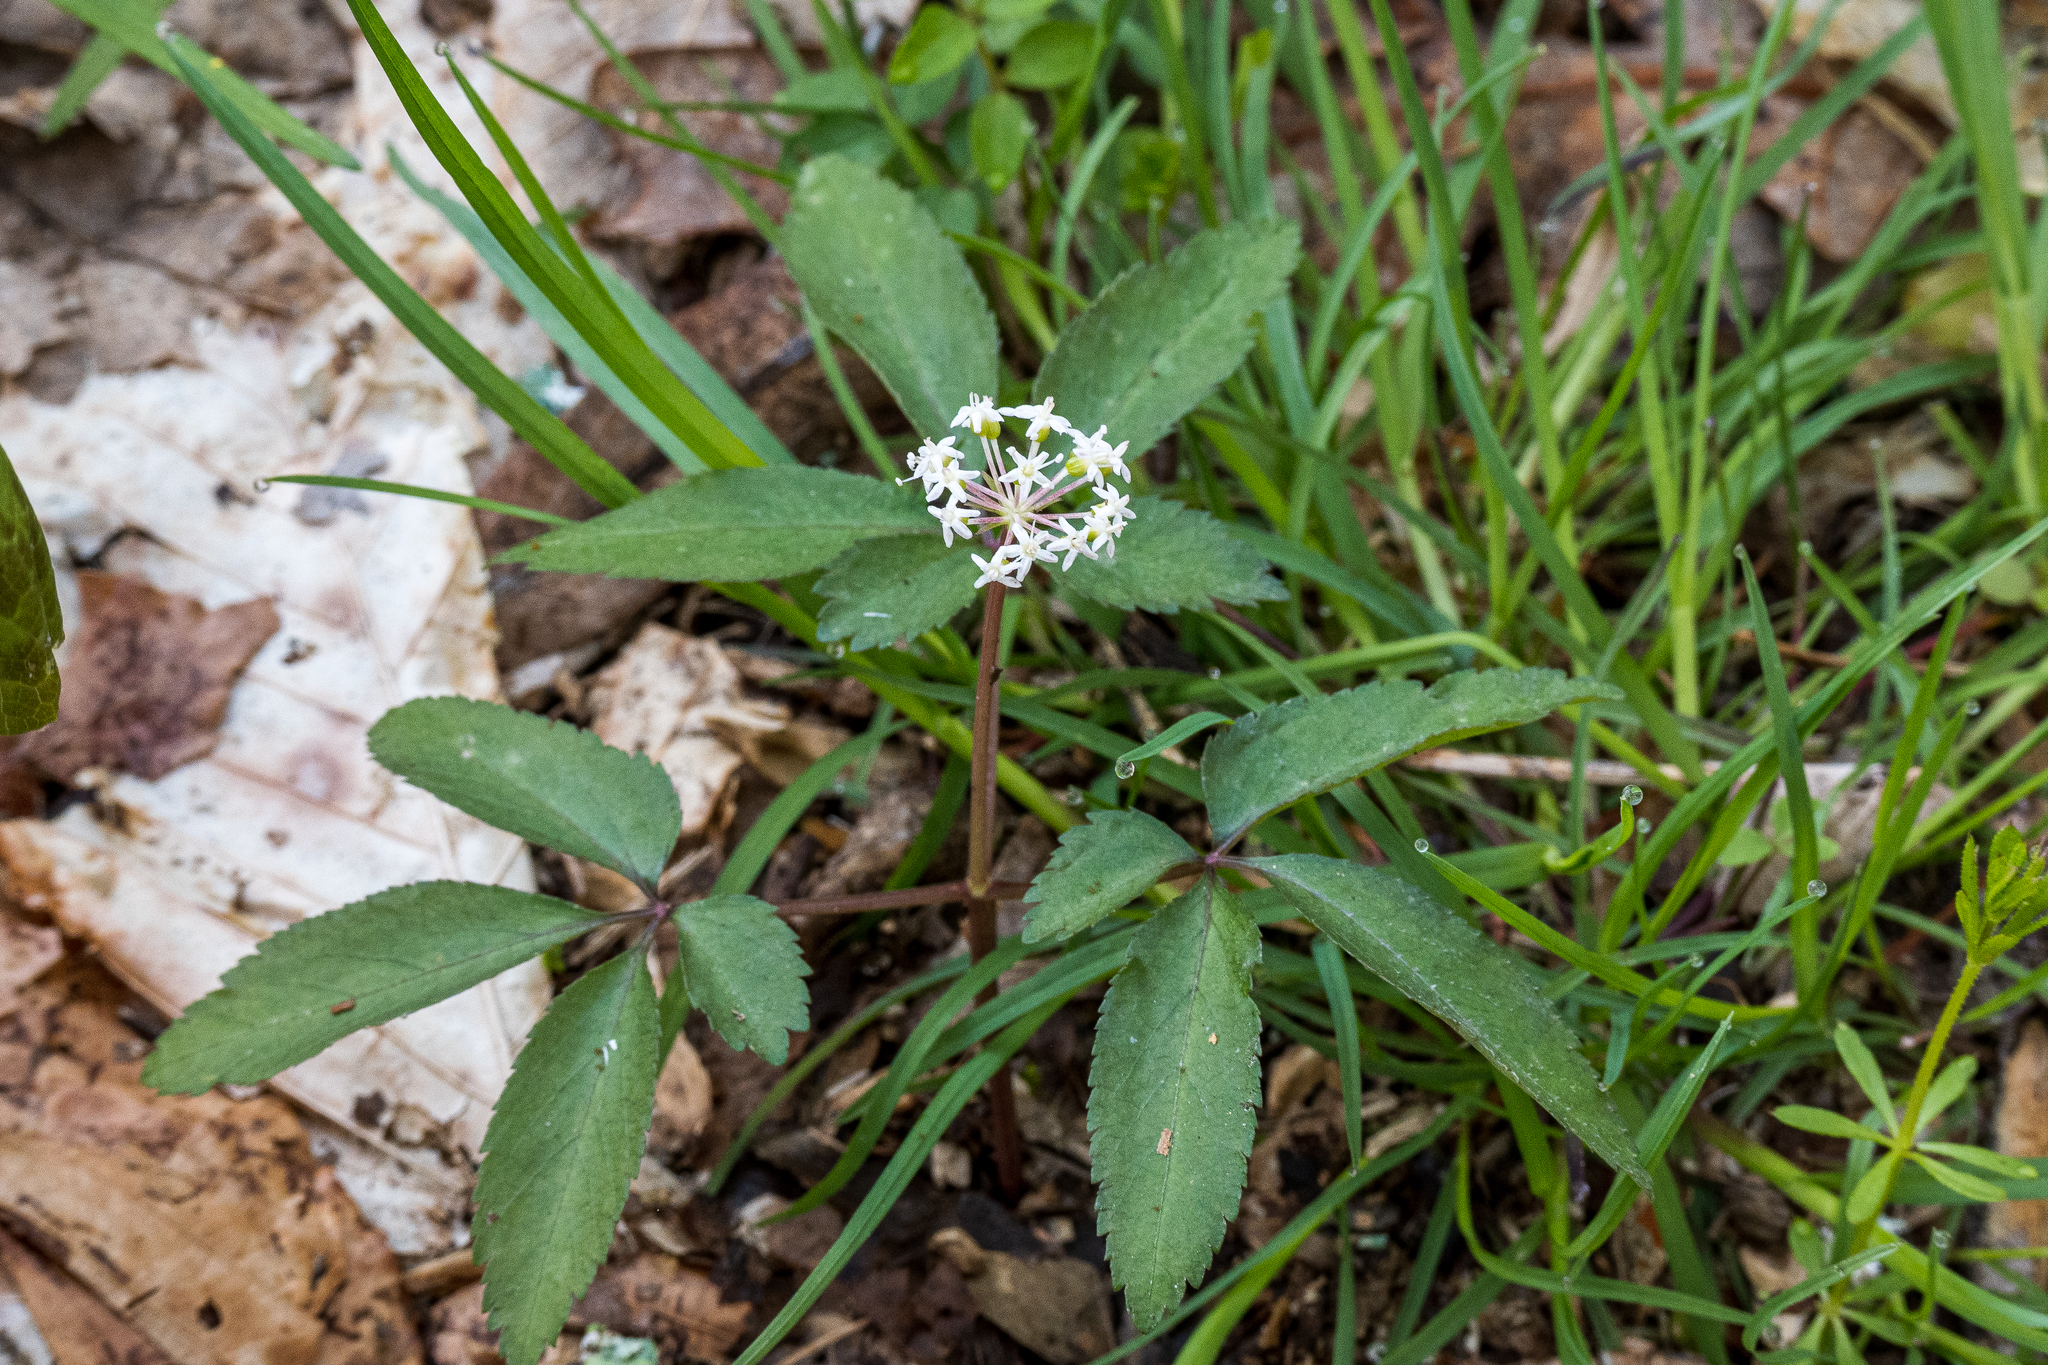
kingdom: Plantae
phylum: Tracheophyta
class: Magnoliopsida
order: Apiales
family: Araliaceae
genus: Panax
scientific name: Panax trifolius
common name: Dwarf ginseng
